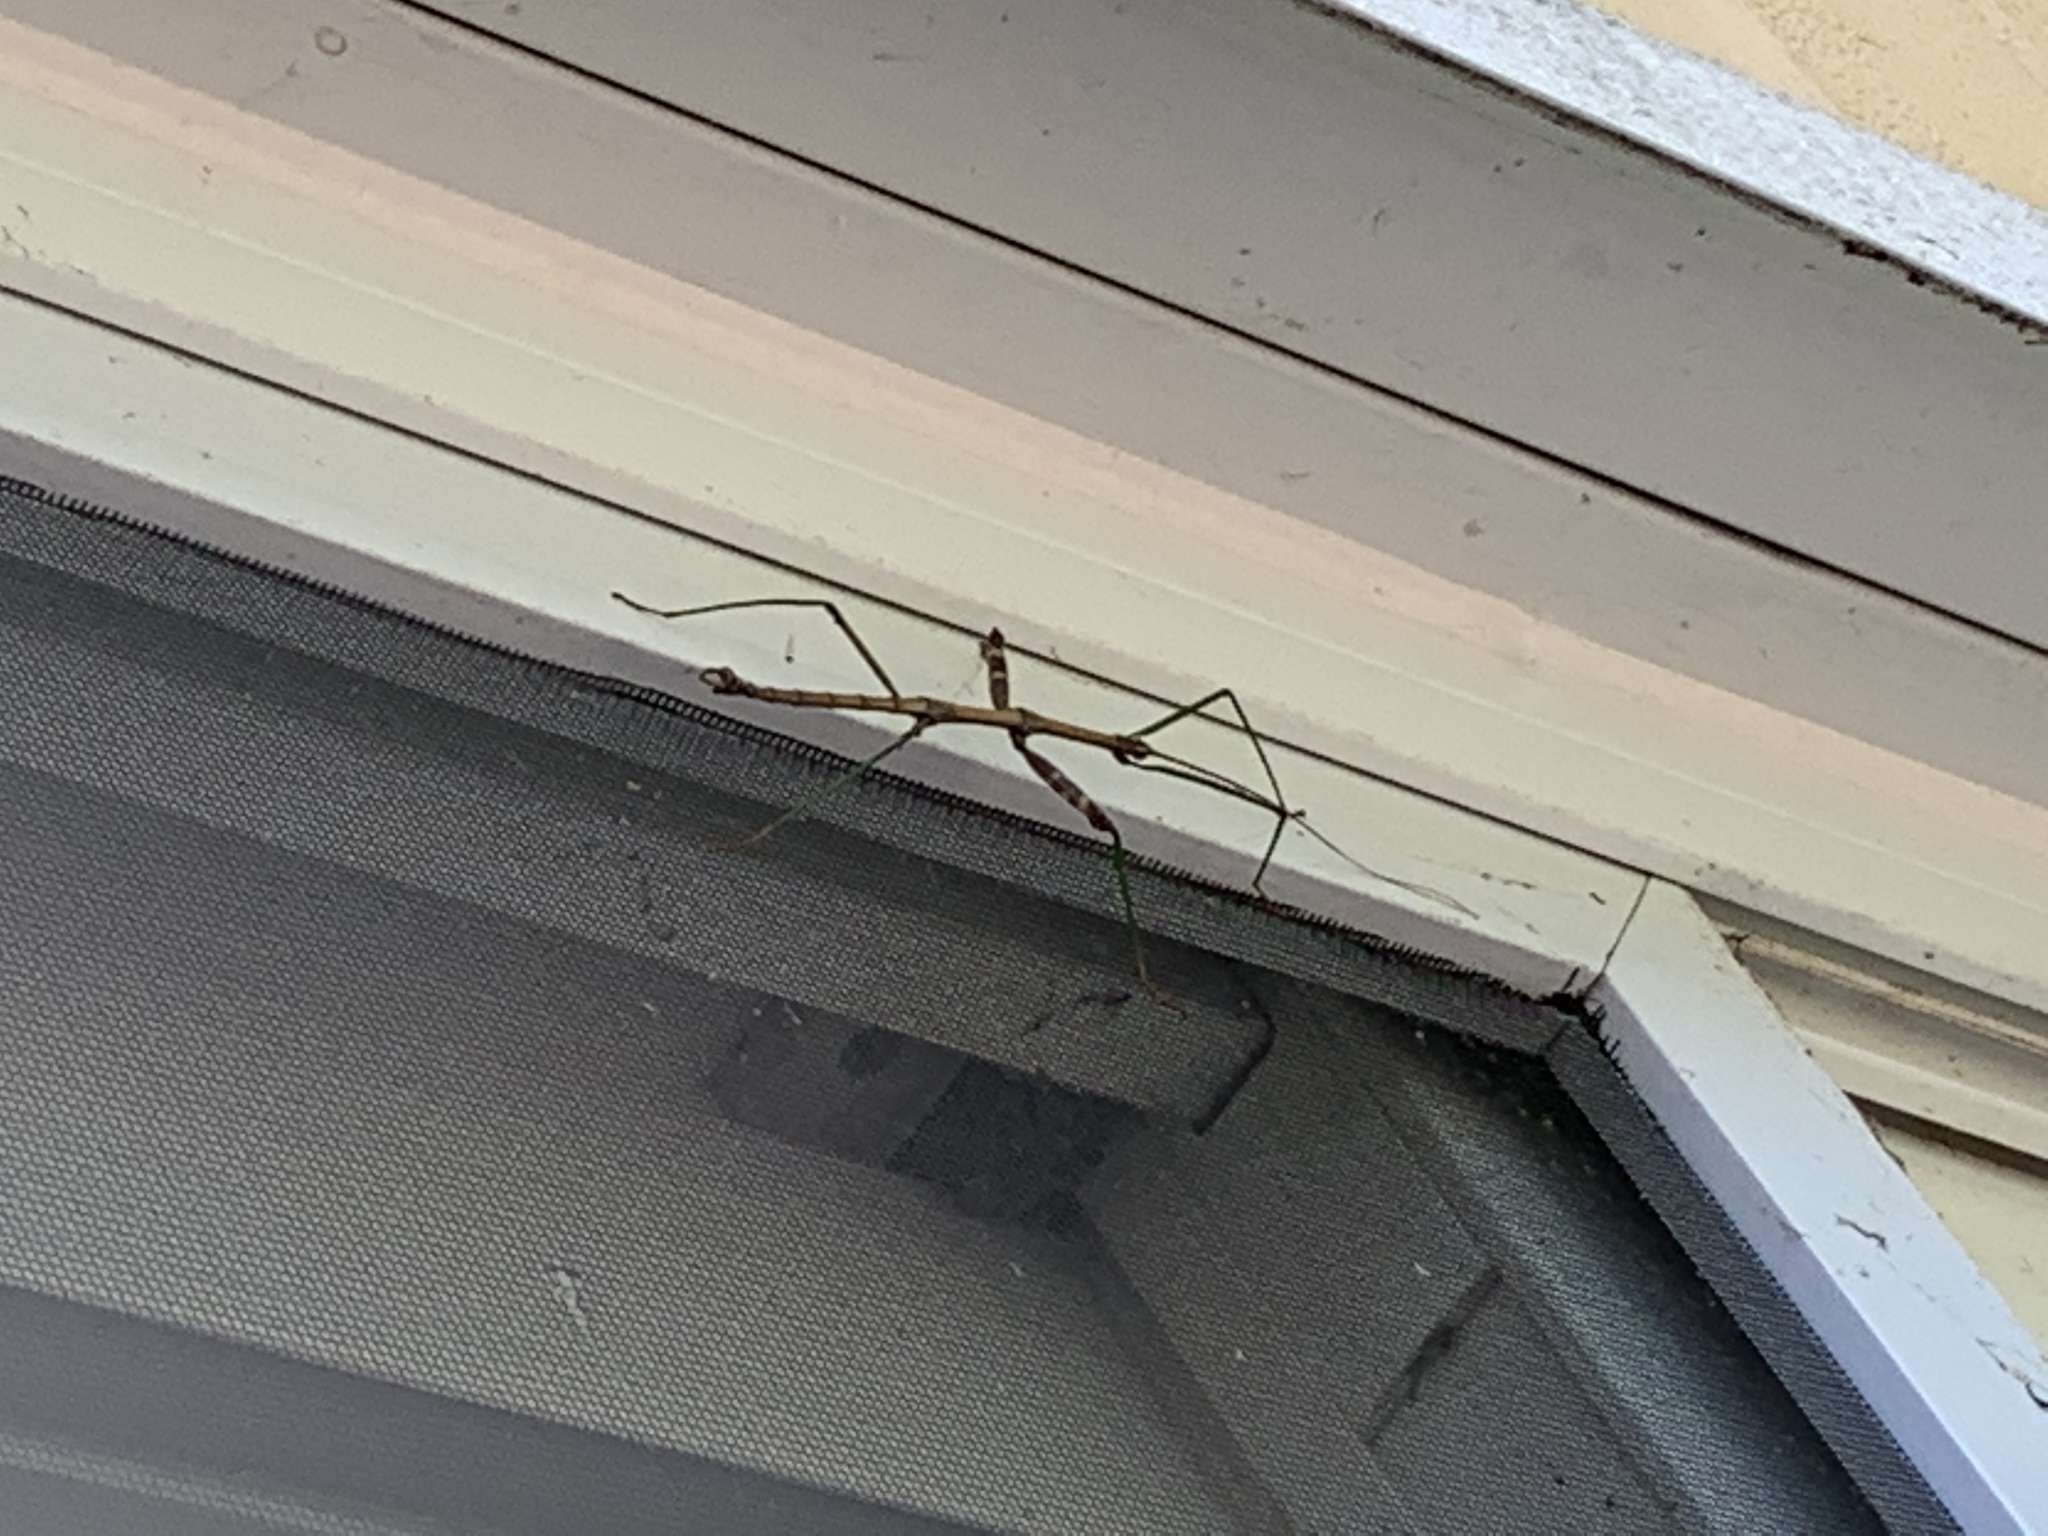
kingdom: Animalia
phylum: Arthropoda
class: Insecta
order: Phasmida
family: Diapheromeridae
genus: Diapheromera
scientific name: Diapheromera femorata
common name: Common american walkingstick
